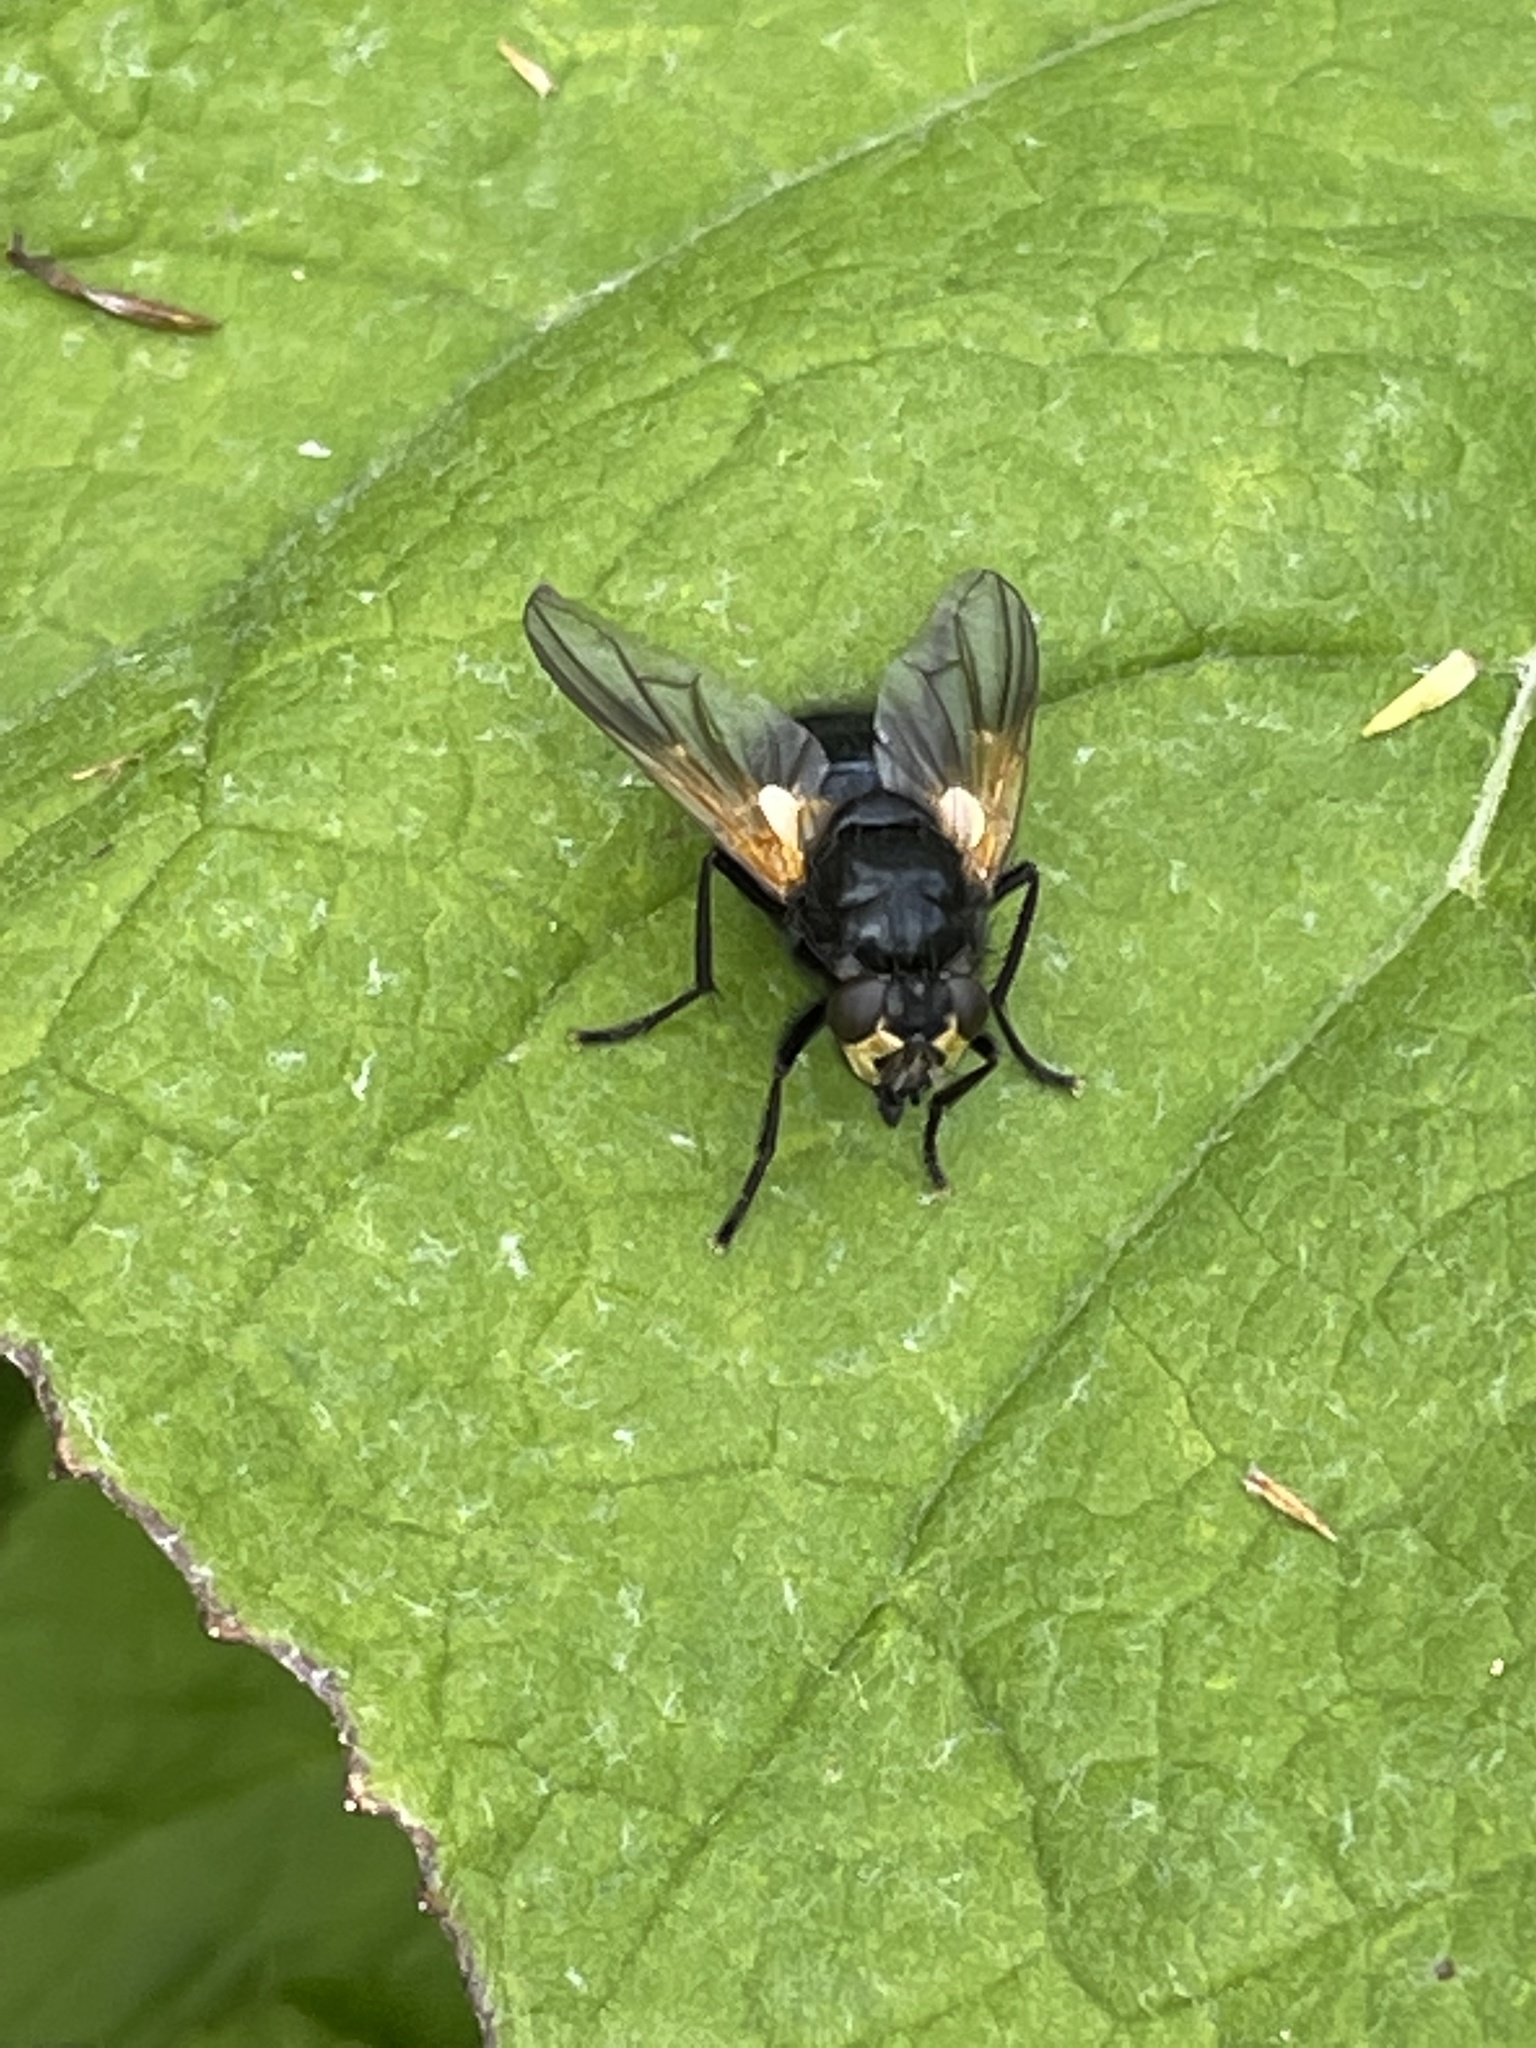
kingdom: Animalia
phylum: Arthropoda
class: Insecta
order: Diptera
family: Muscidae
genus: Mesembrina
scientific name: Mesembrina meridiana
